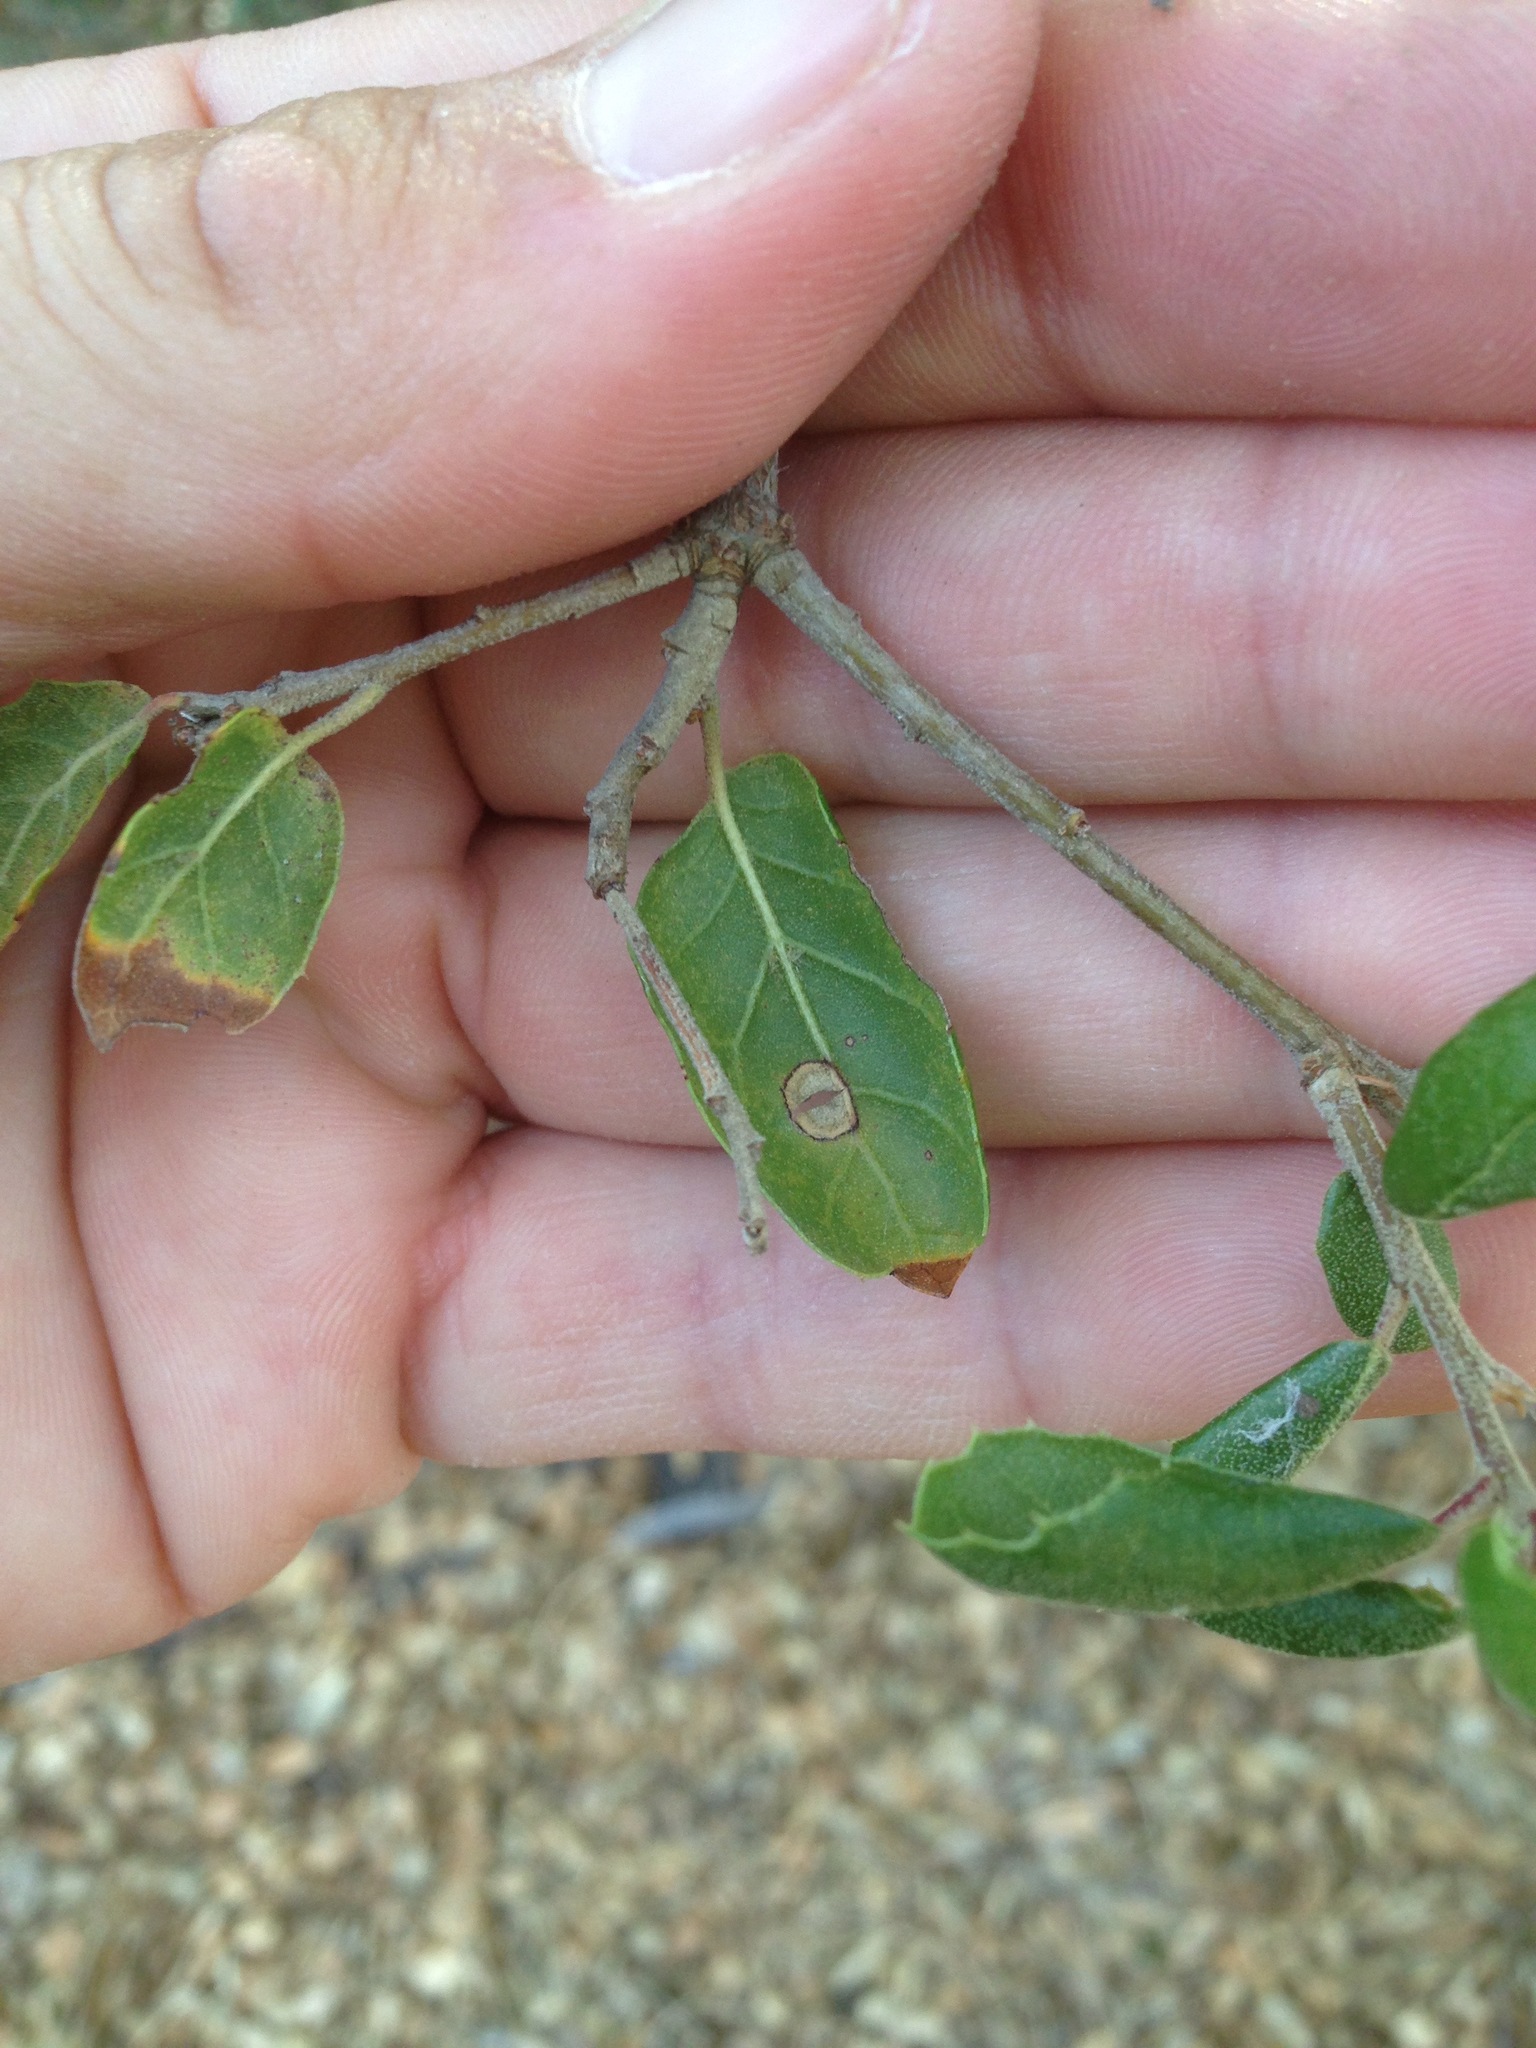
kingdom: Plantae
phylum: Tracheophyta
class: Magnoliopsida
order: Fagales
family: Fagaceae
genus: Quercus
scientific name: Quercus agrifolia
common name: California live oak
